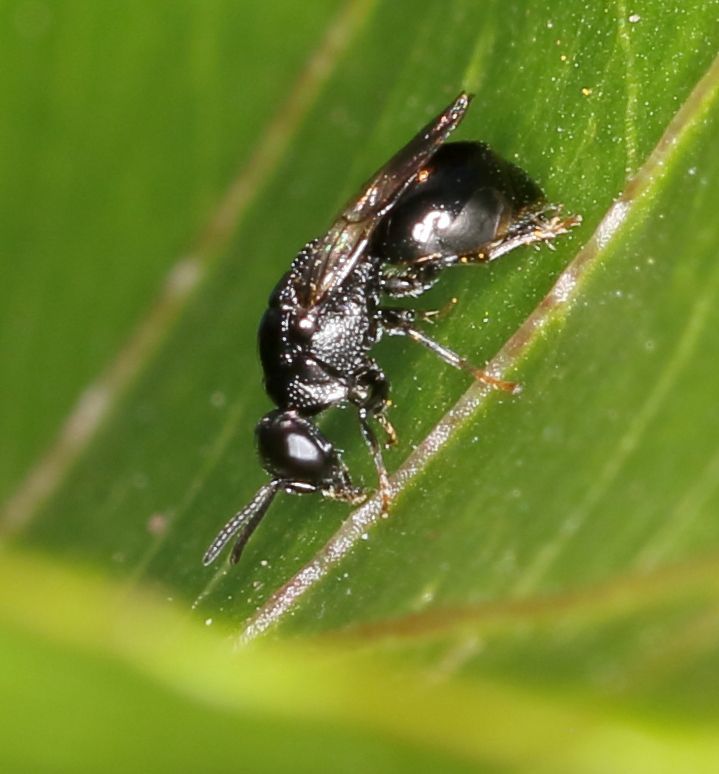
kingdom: Animalia
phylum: Arthropoda
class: Insecta
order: Hymenoptera
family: Chrysididae
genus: Holophris
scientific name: Holophris
